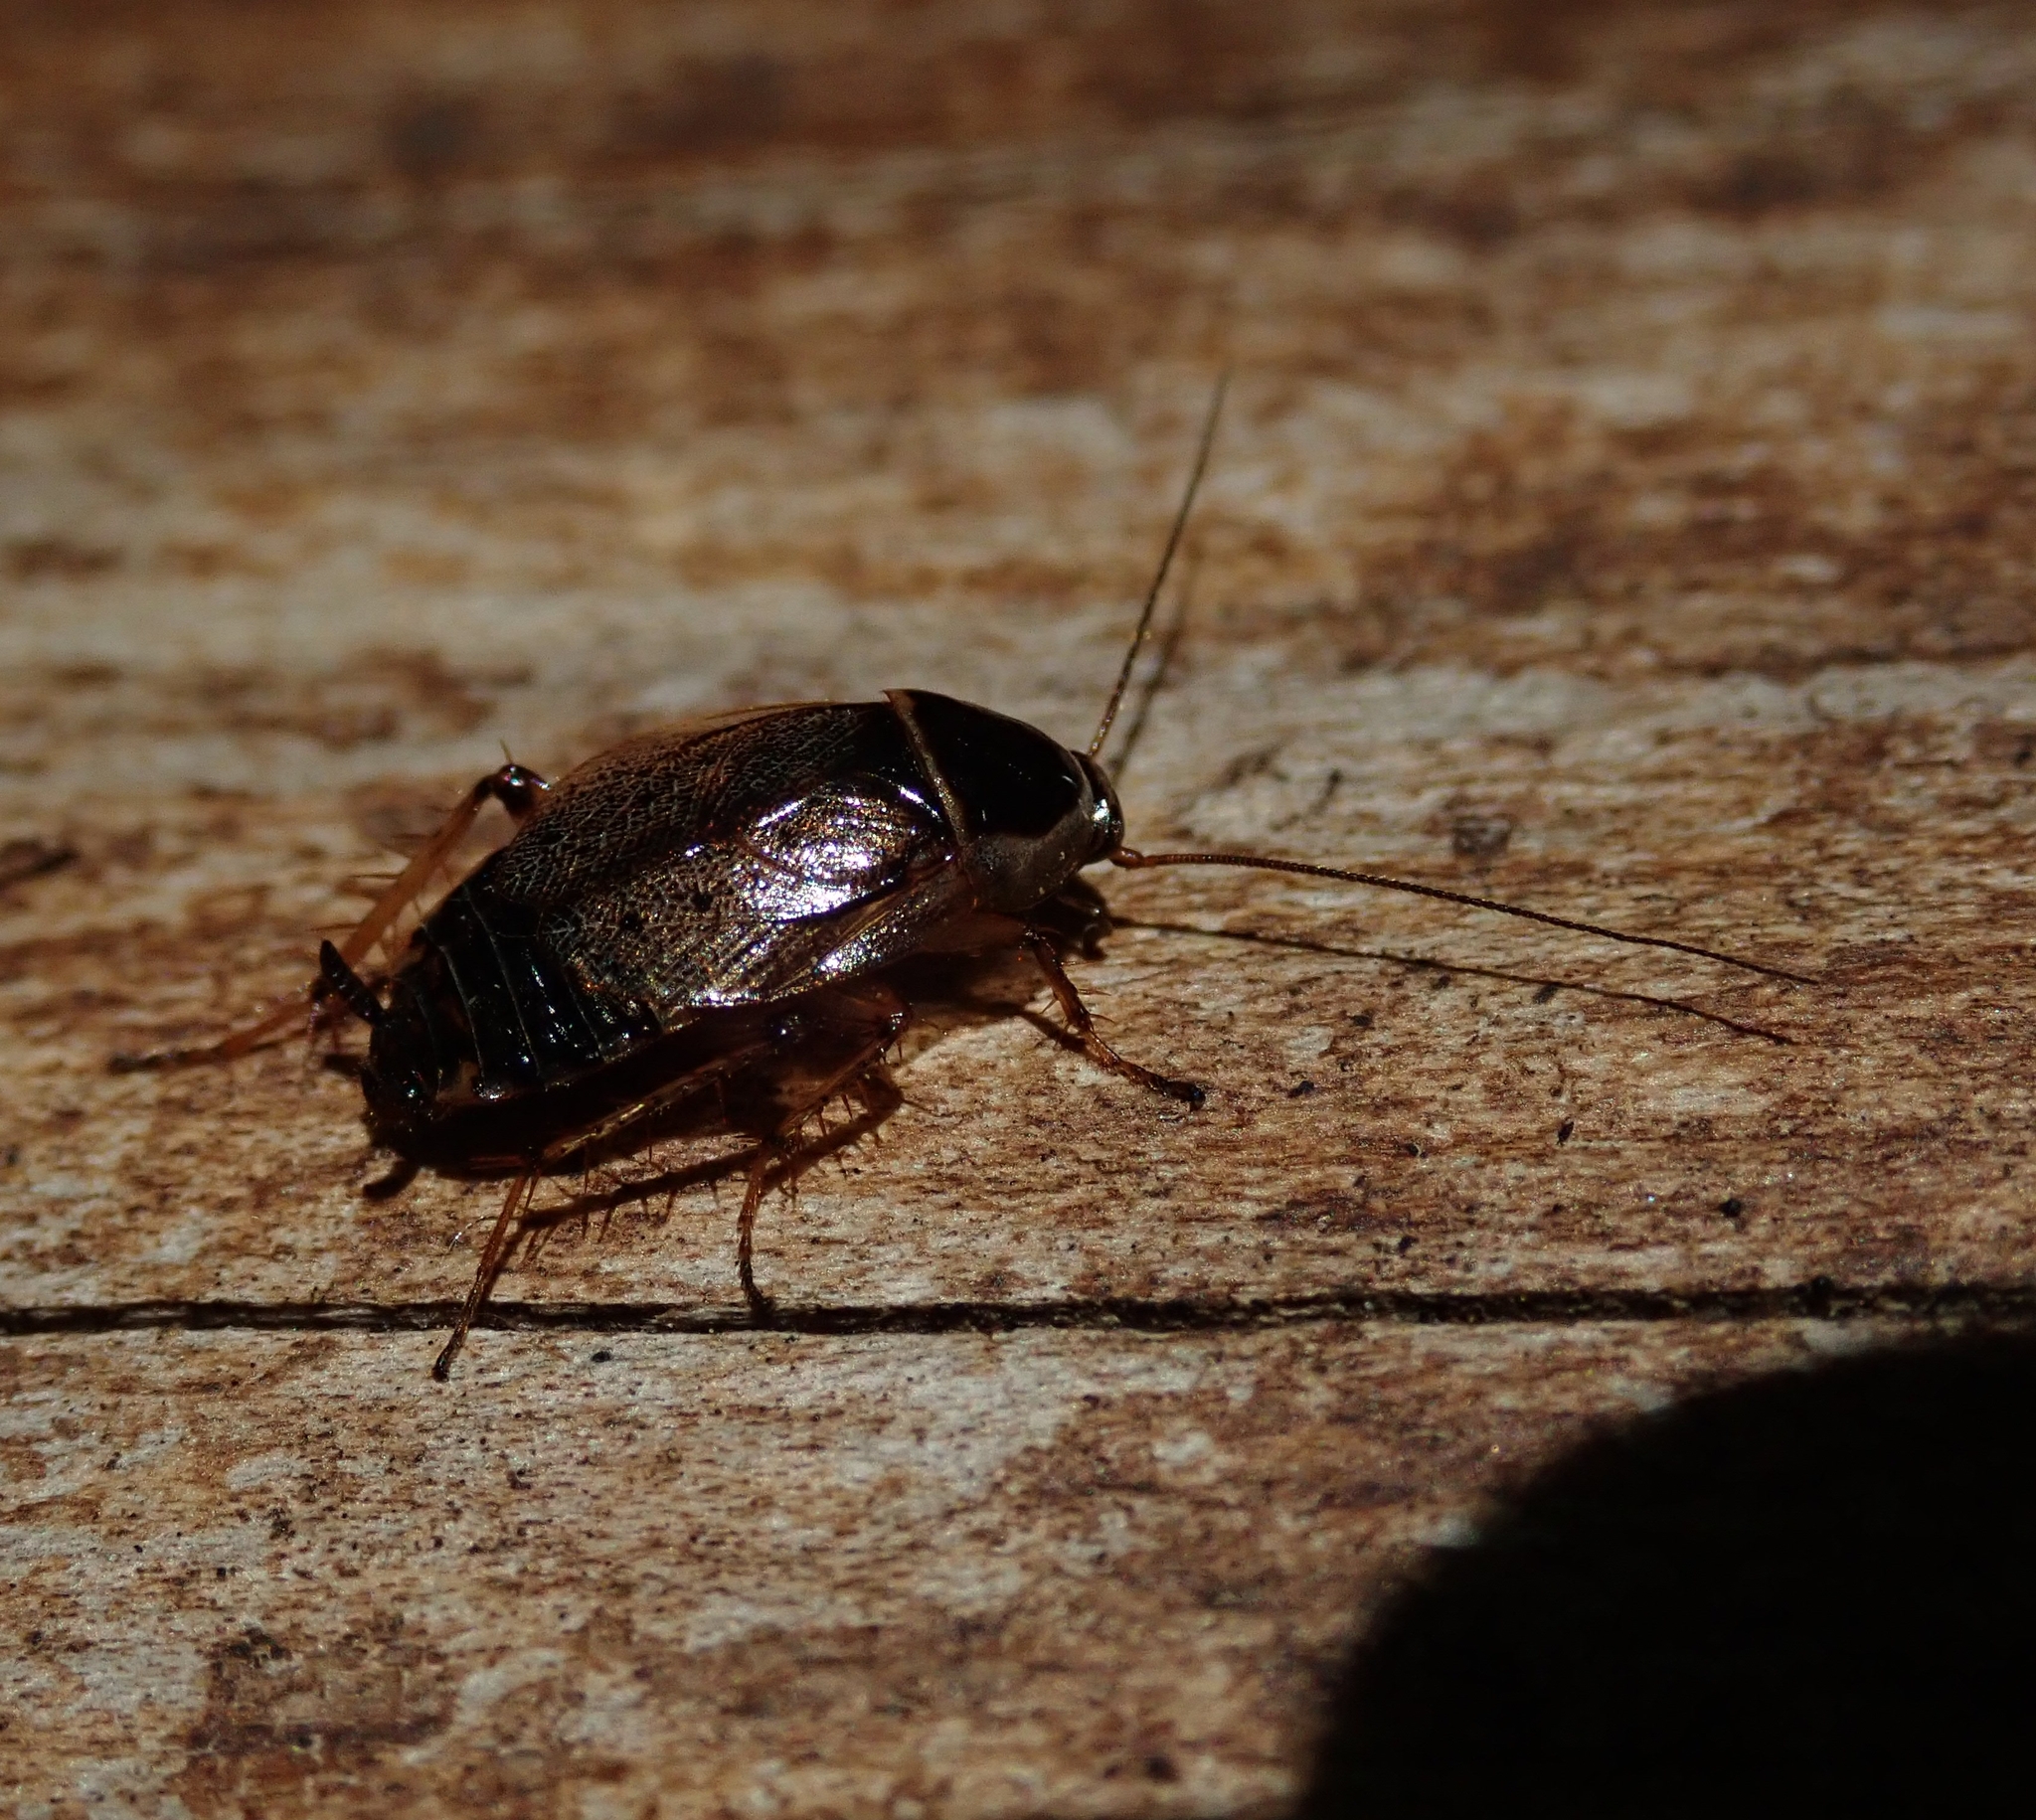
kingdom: Animalia
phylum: Arthropoda
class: Insecta
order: Blattodea
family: Ectobiidae
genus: Ectobius
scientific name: Ectobius sylvestris
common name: Forest cockroach
